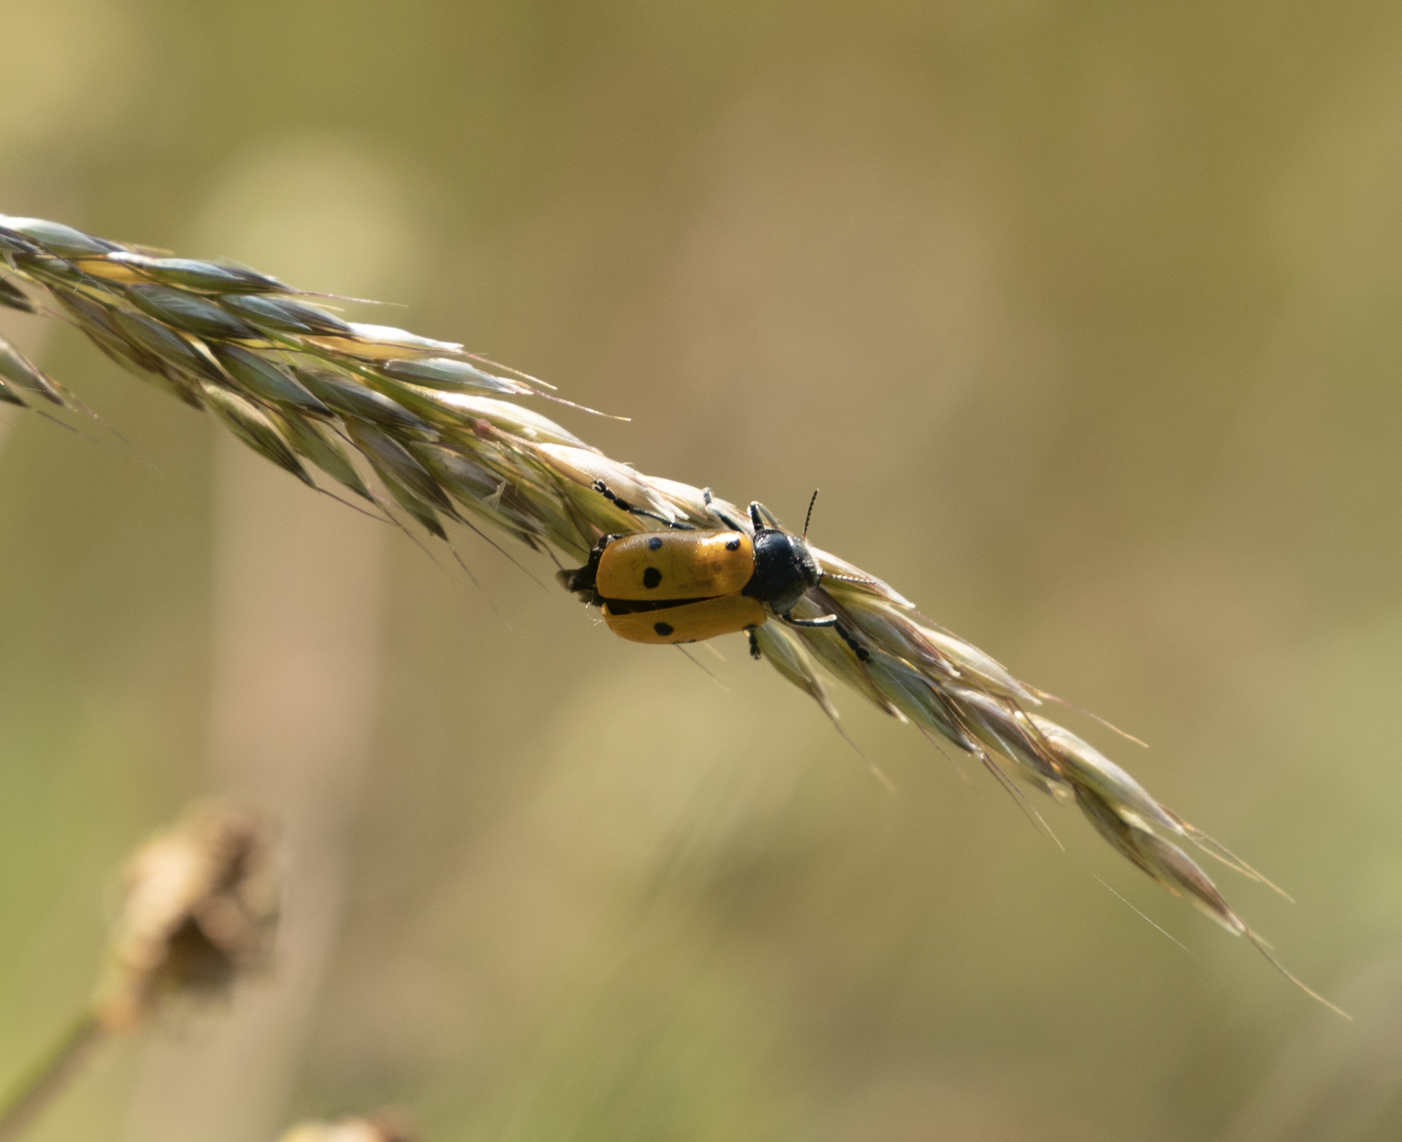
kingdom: Animalia
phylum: Arthropoda
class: Insecta
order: Coleoptera
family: Chrysomelidae
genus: Lachnaia
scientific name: Lachnaia italica
